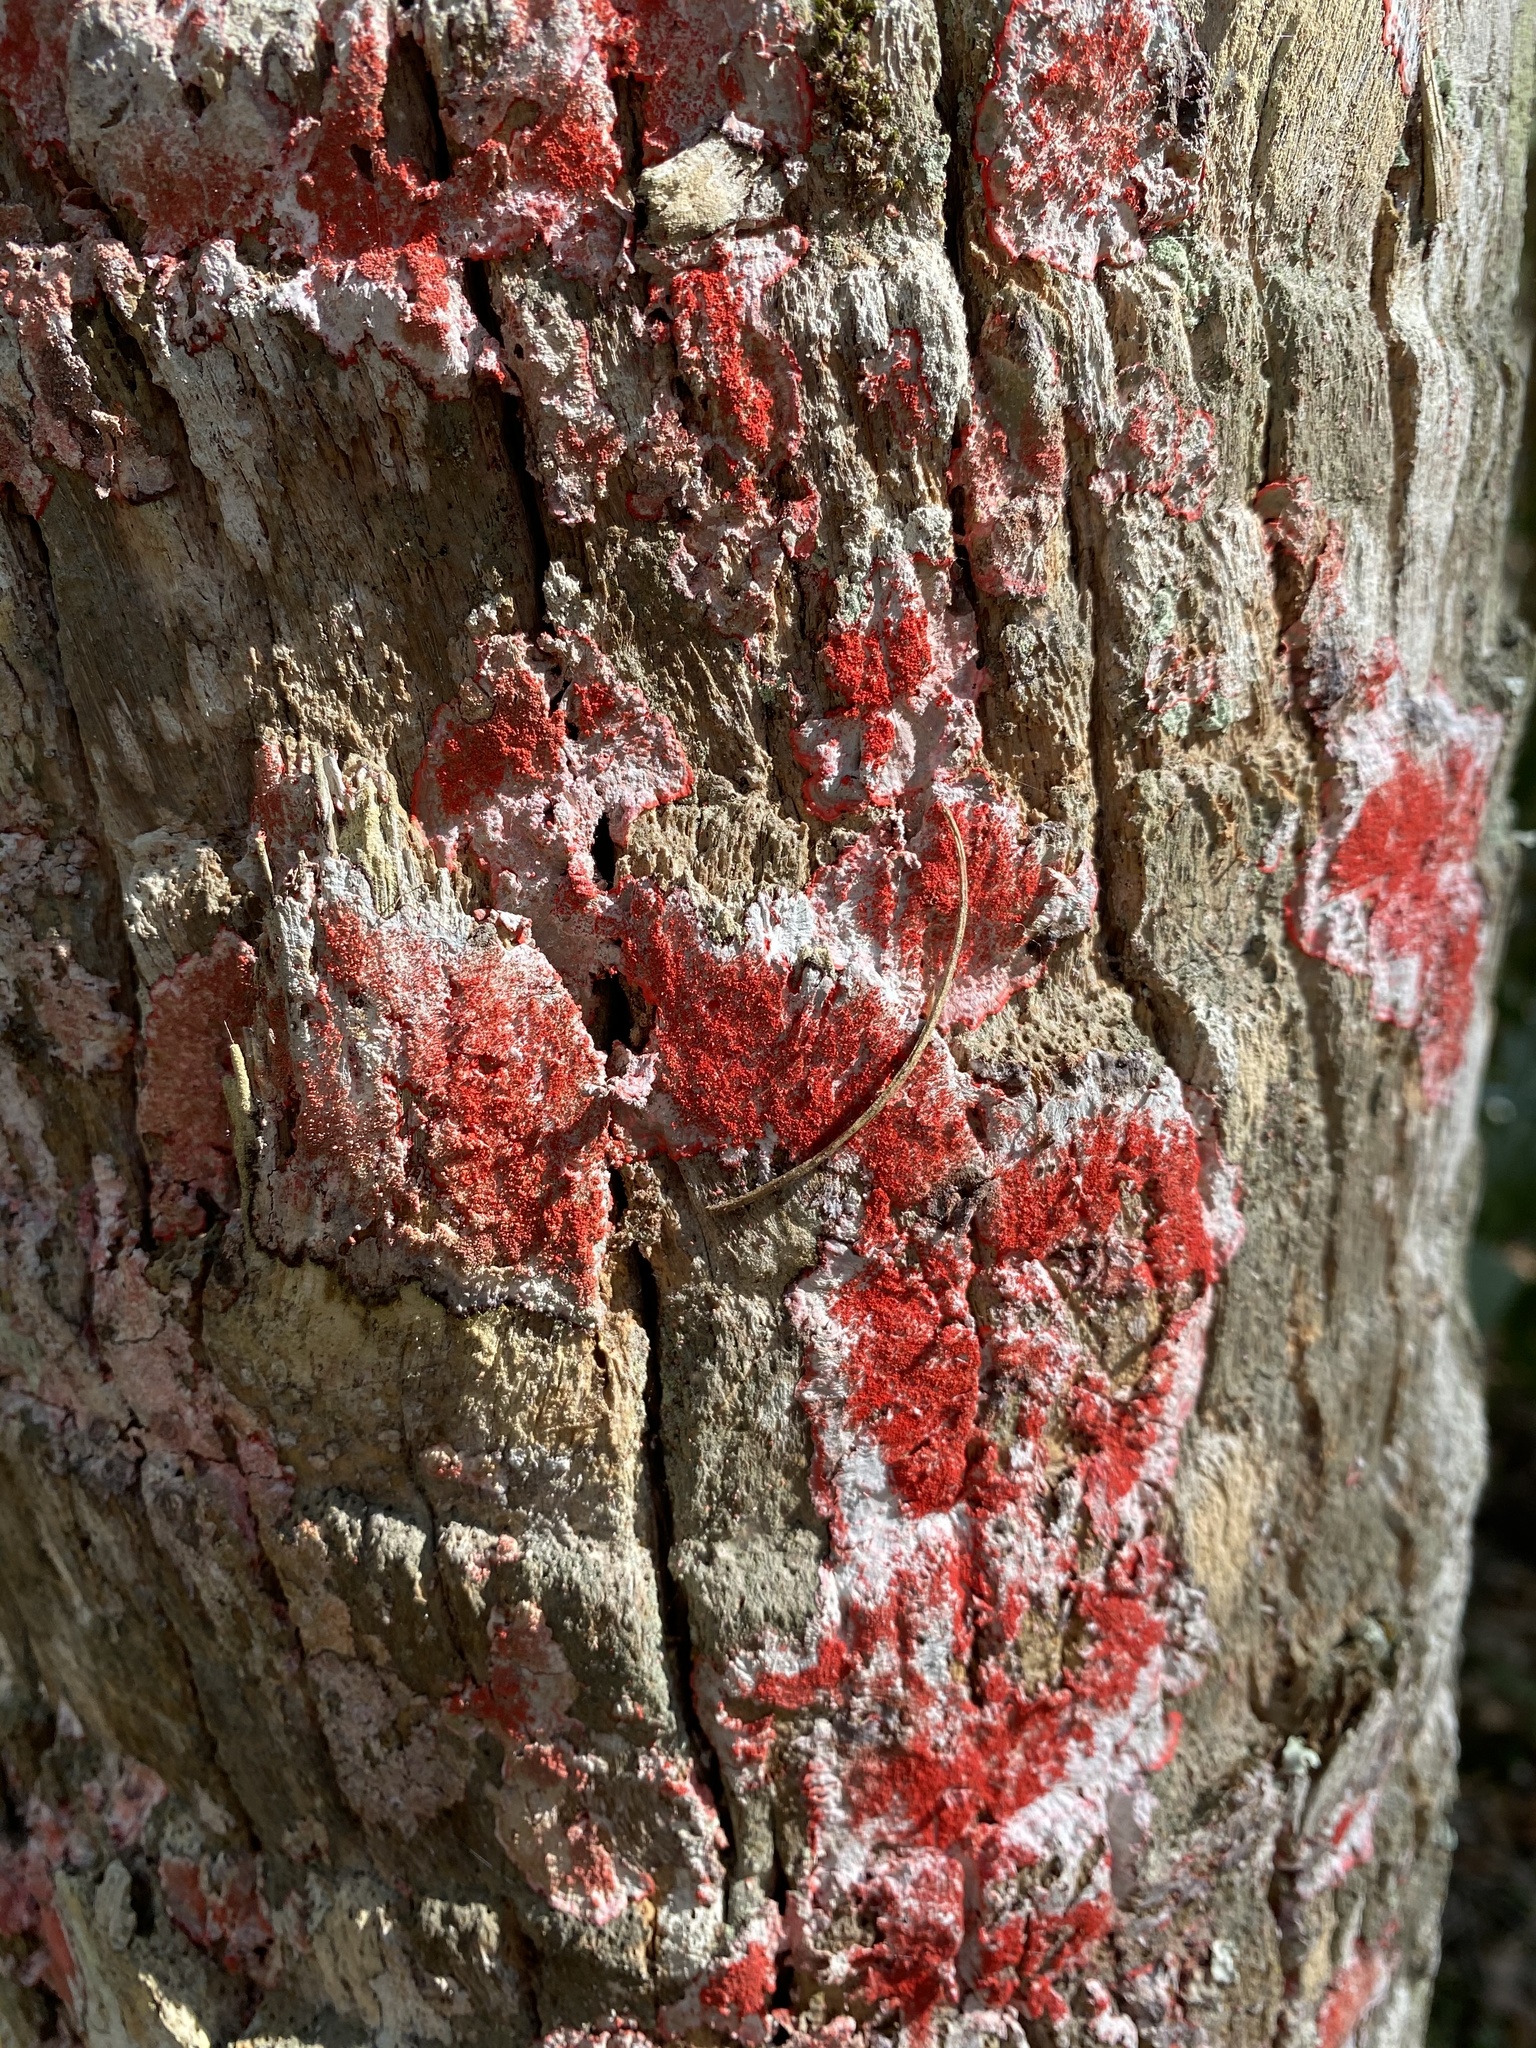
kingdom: Fungi
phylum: Ascomycota
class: Arthoniomycetes
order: Arthoniales
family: Arthoniaceae
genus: Herpothallon
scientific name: Herpothallon rubrocinctum
